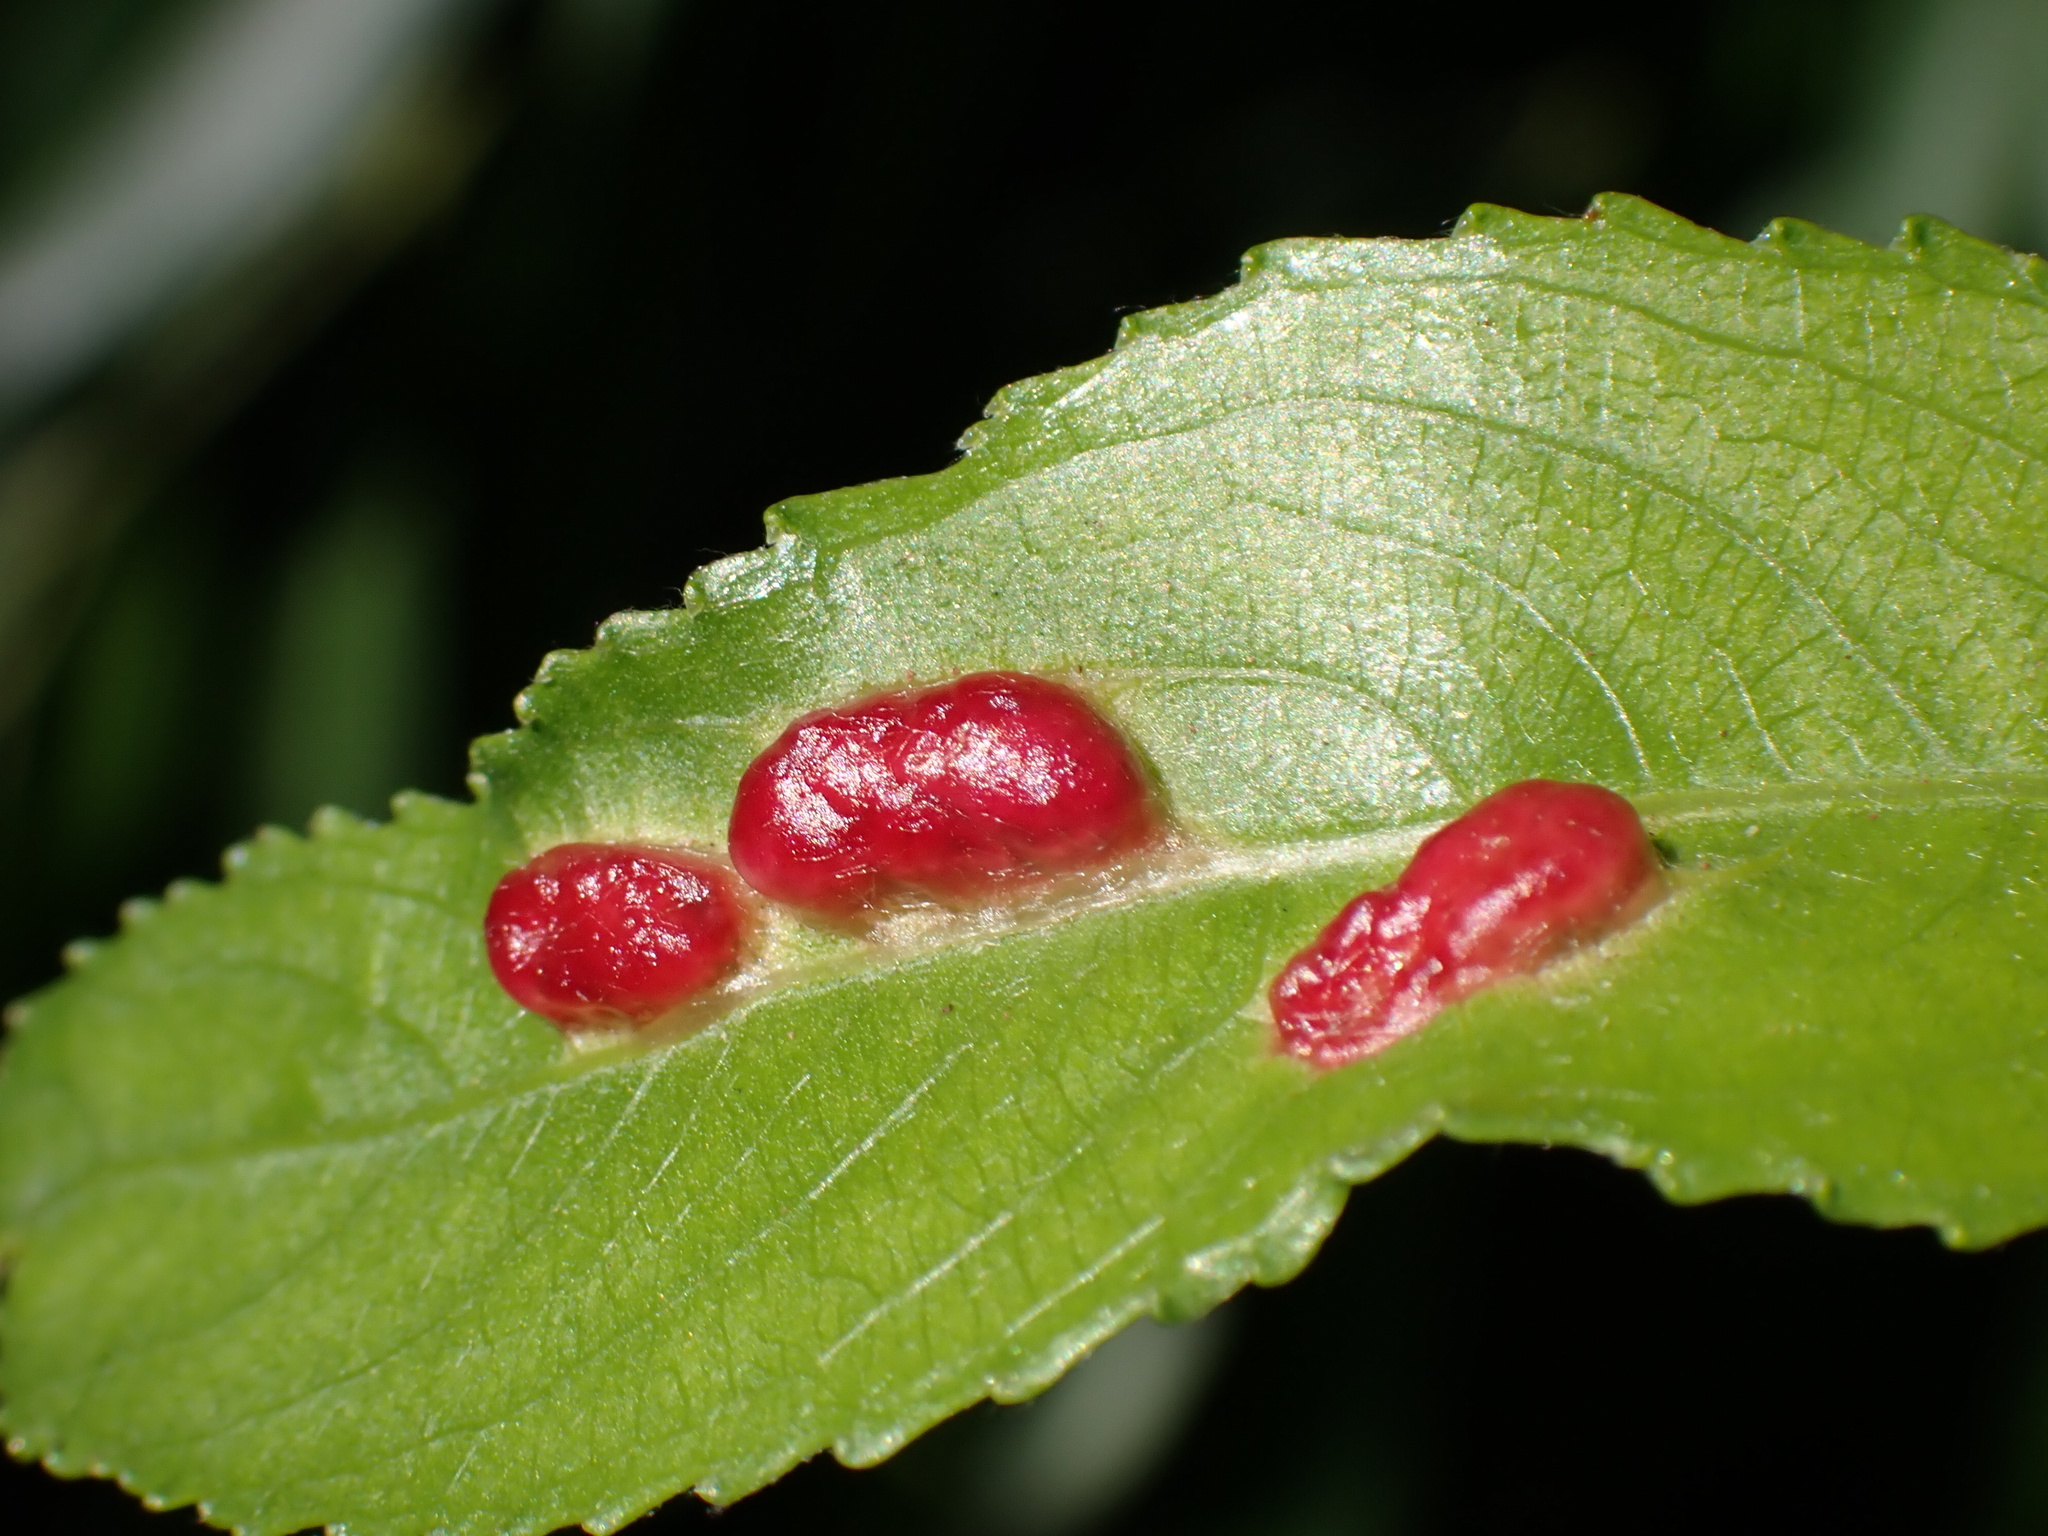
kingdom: Animalia
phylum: Arthropoda
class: Insecta
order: Hymenoptera
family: Tenthredinidae
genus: Pontania
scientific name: Pontania proxima
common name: Common sawfly
